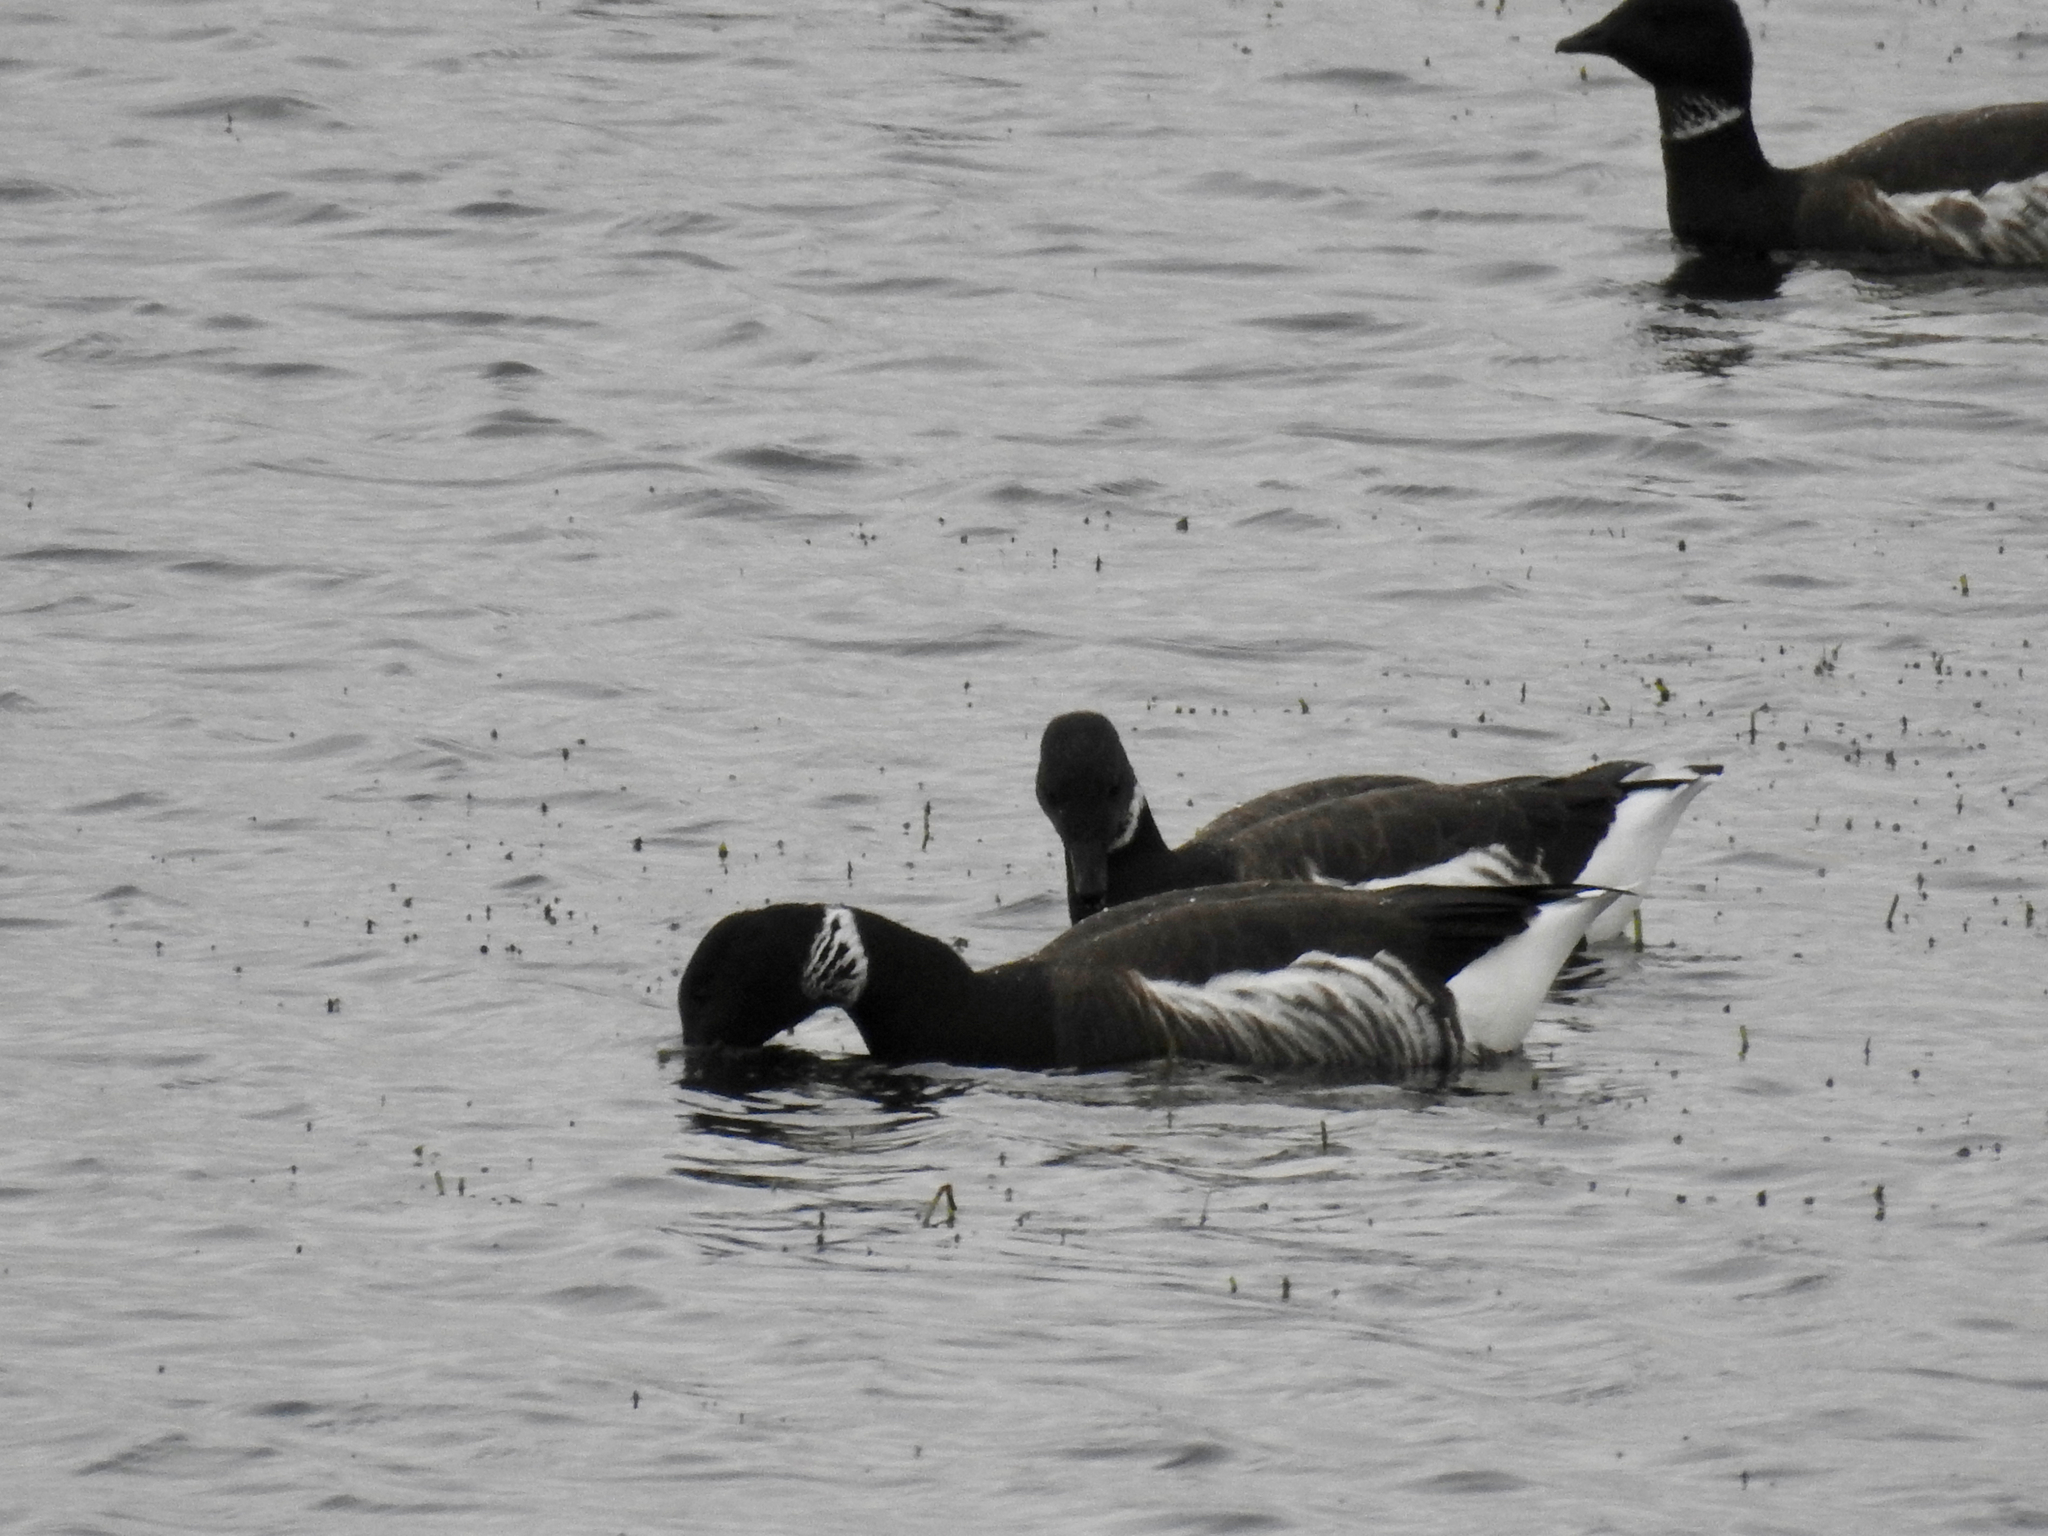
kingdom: Animalia
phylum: Chordata
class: Aves
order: Anseriformes
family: Anatidae
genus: Branta
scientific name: Branta bernicla
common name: Brant goose
